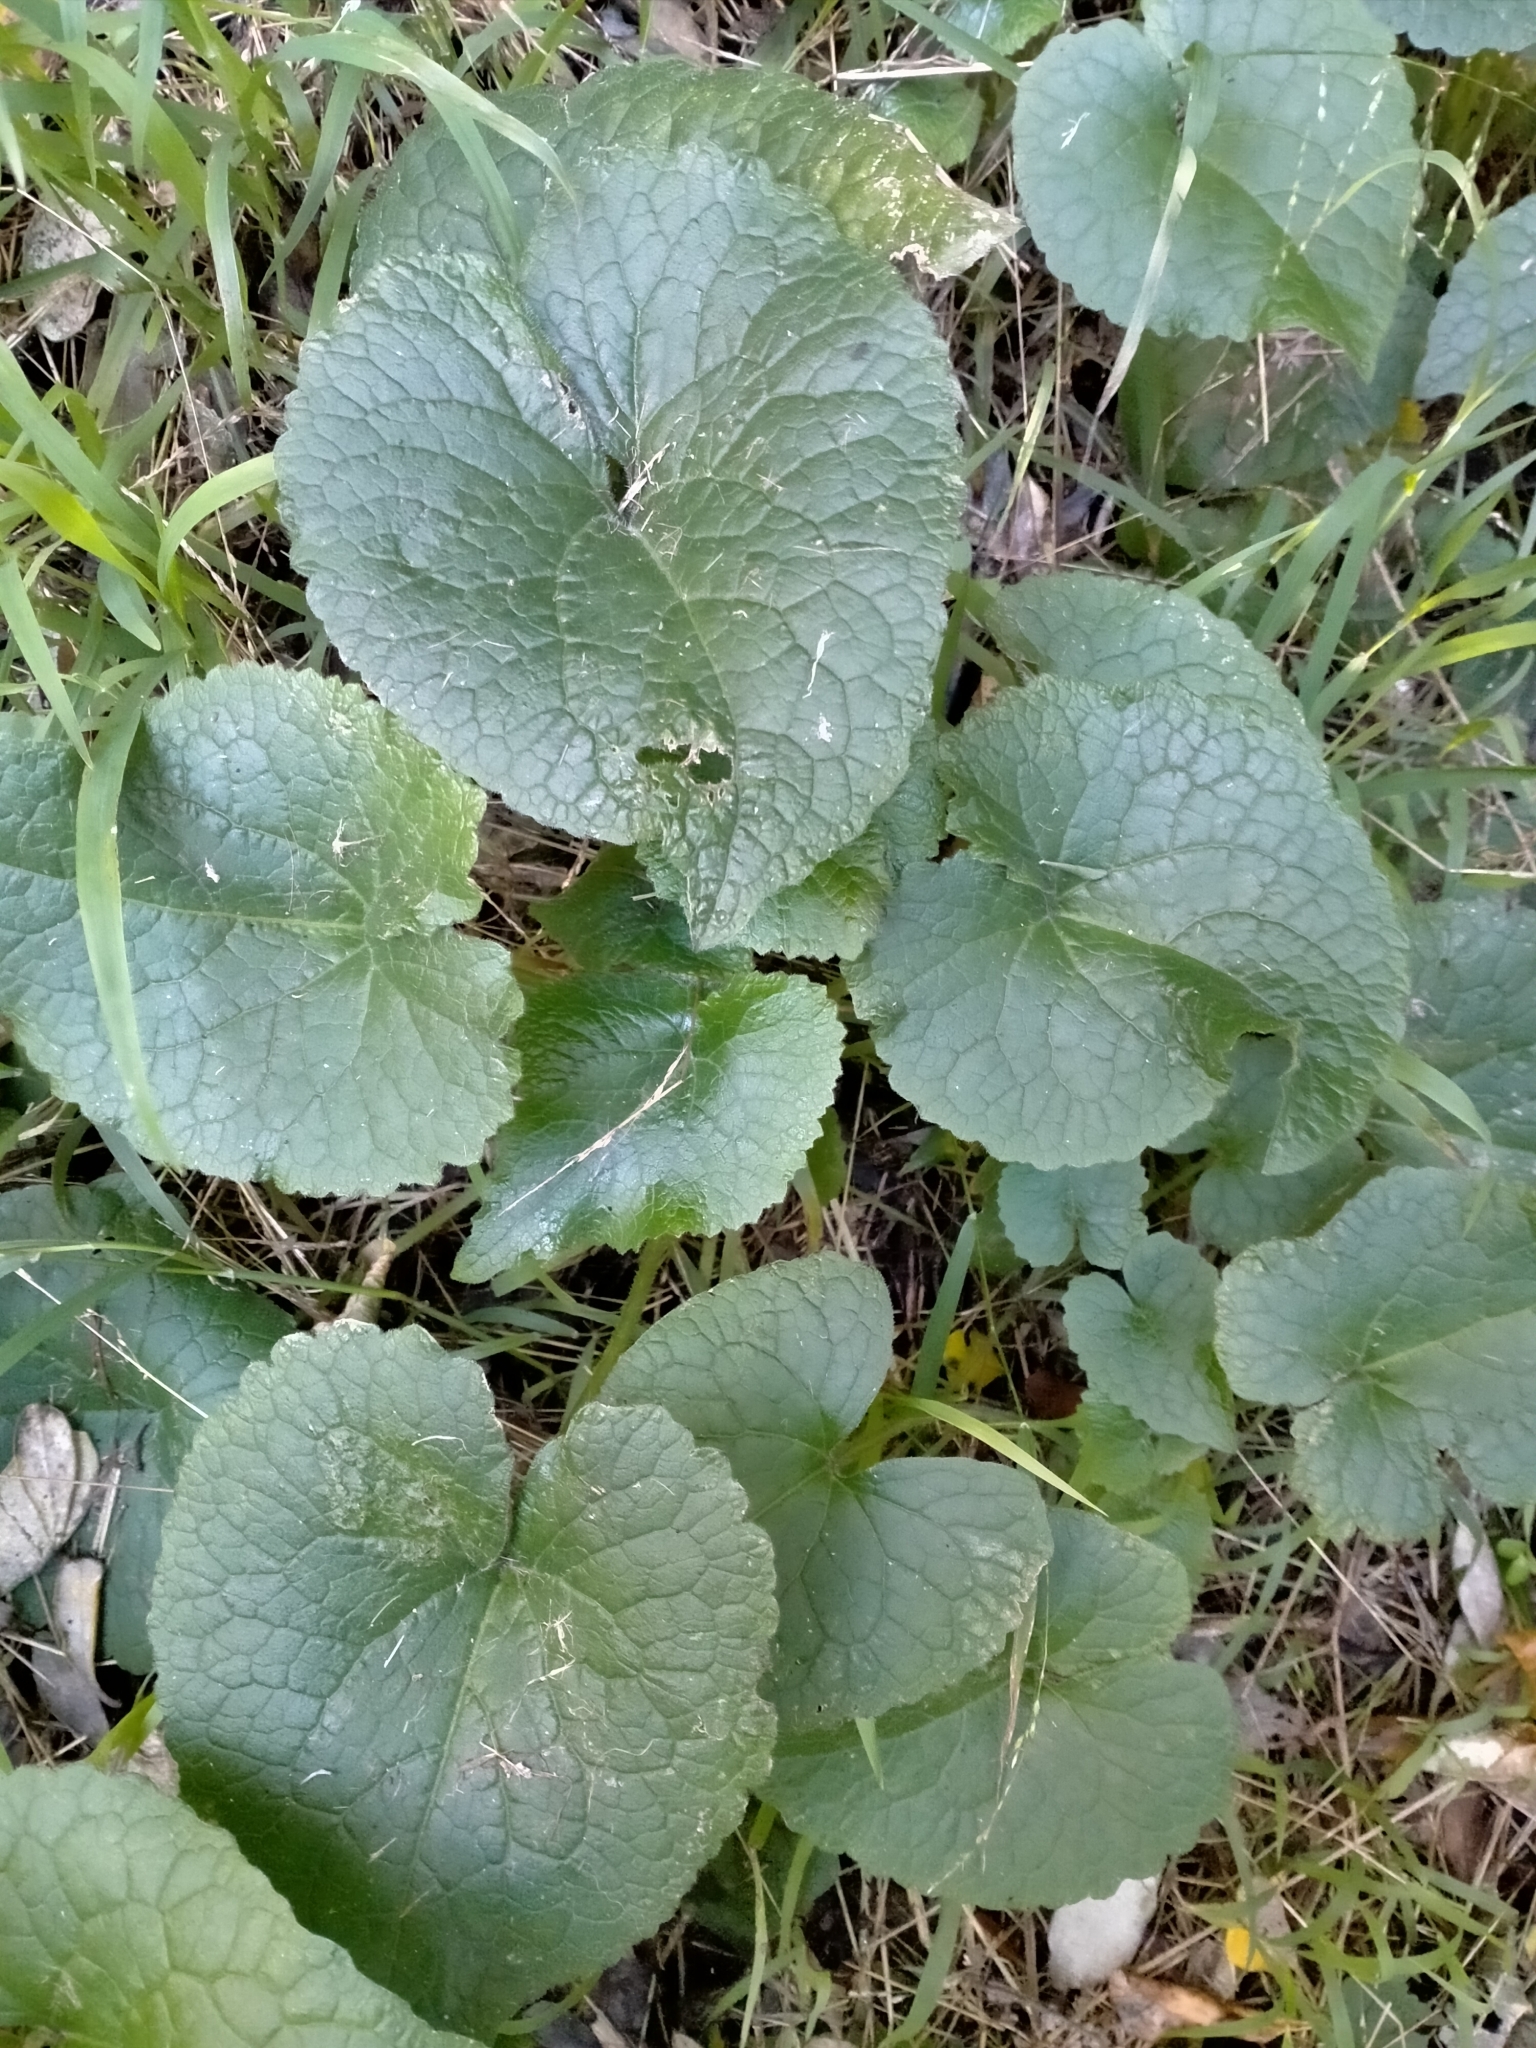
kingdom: Plantae
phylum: Tracheophyta
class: Magnoliopsida
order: Brassicales
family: Brassicaceae
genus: Lunaria
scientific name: Lunaria annua
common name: Honesty
